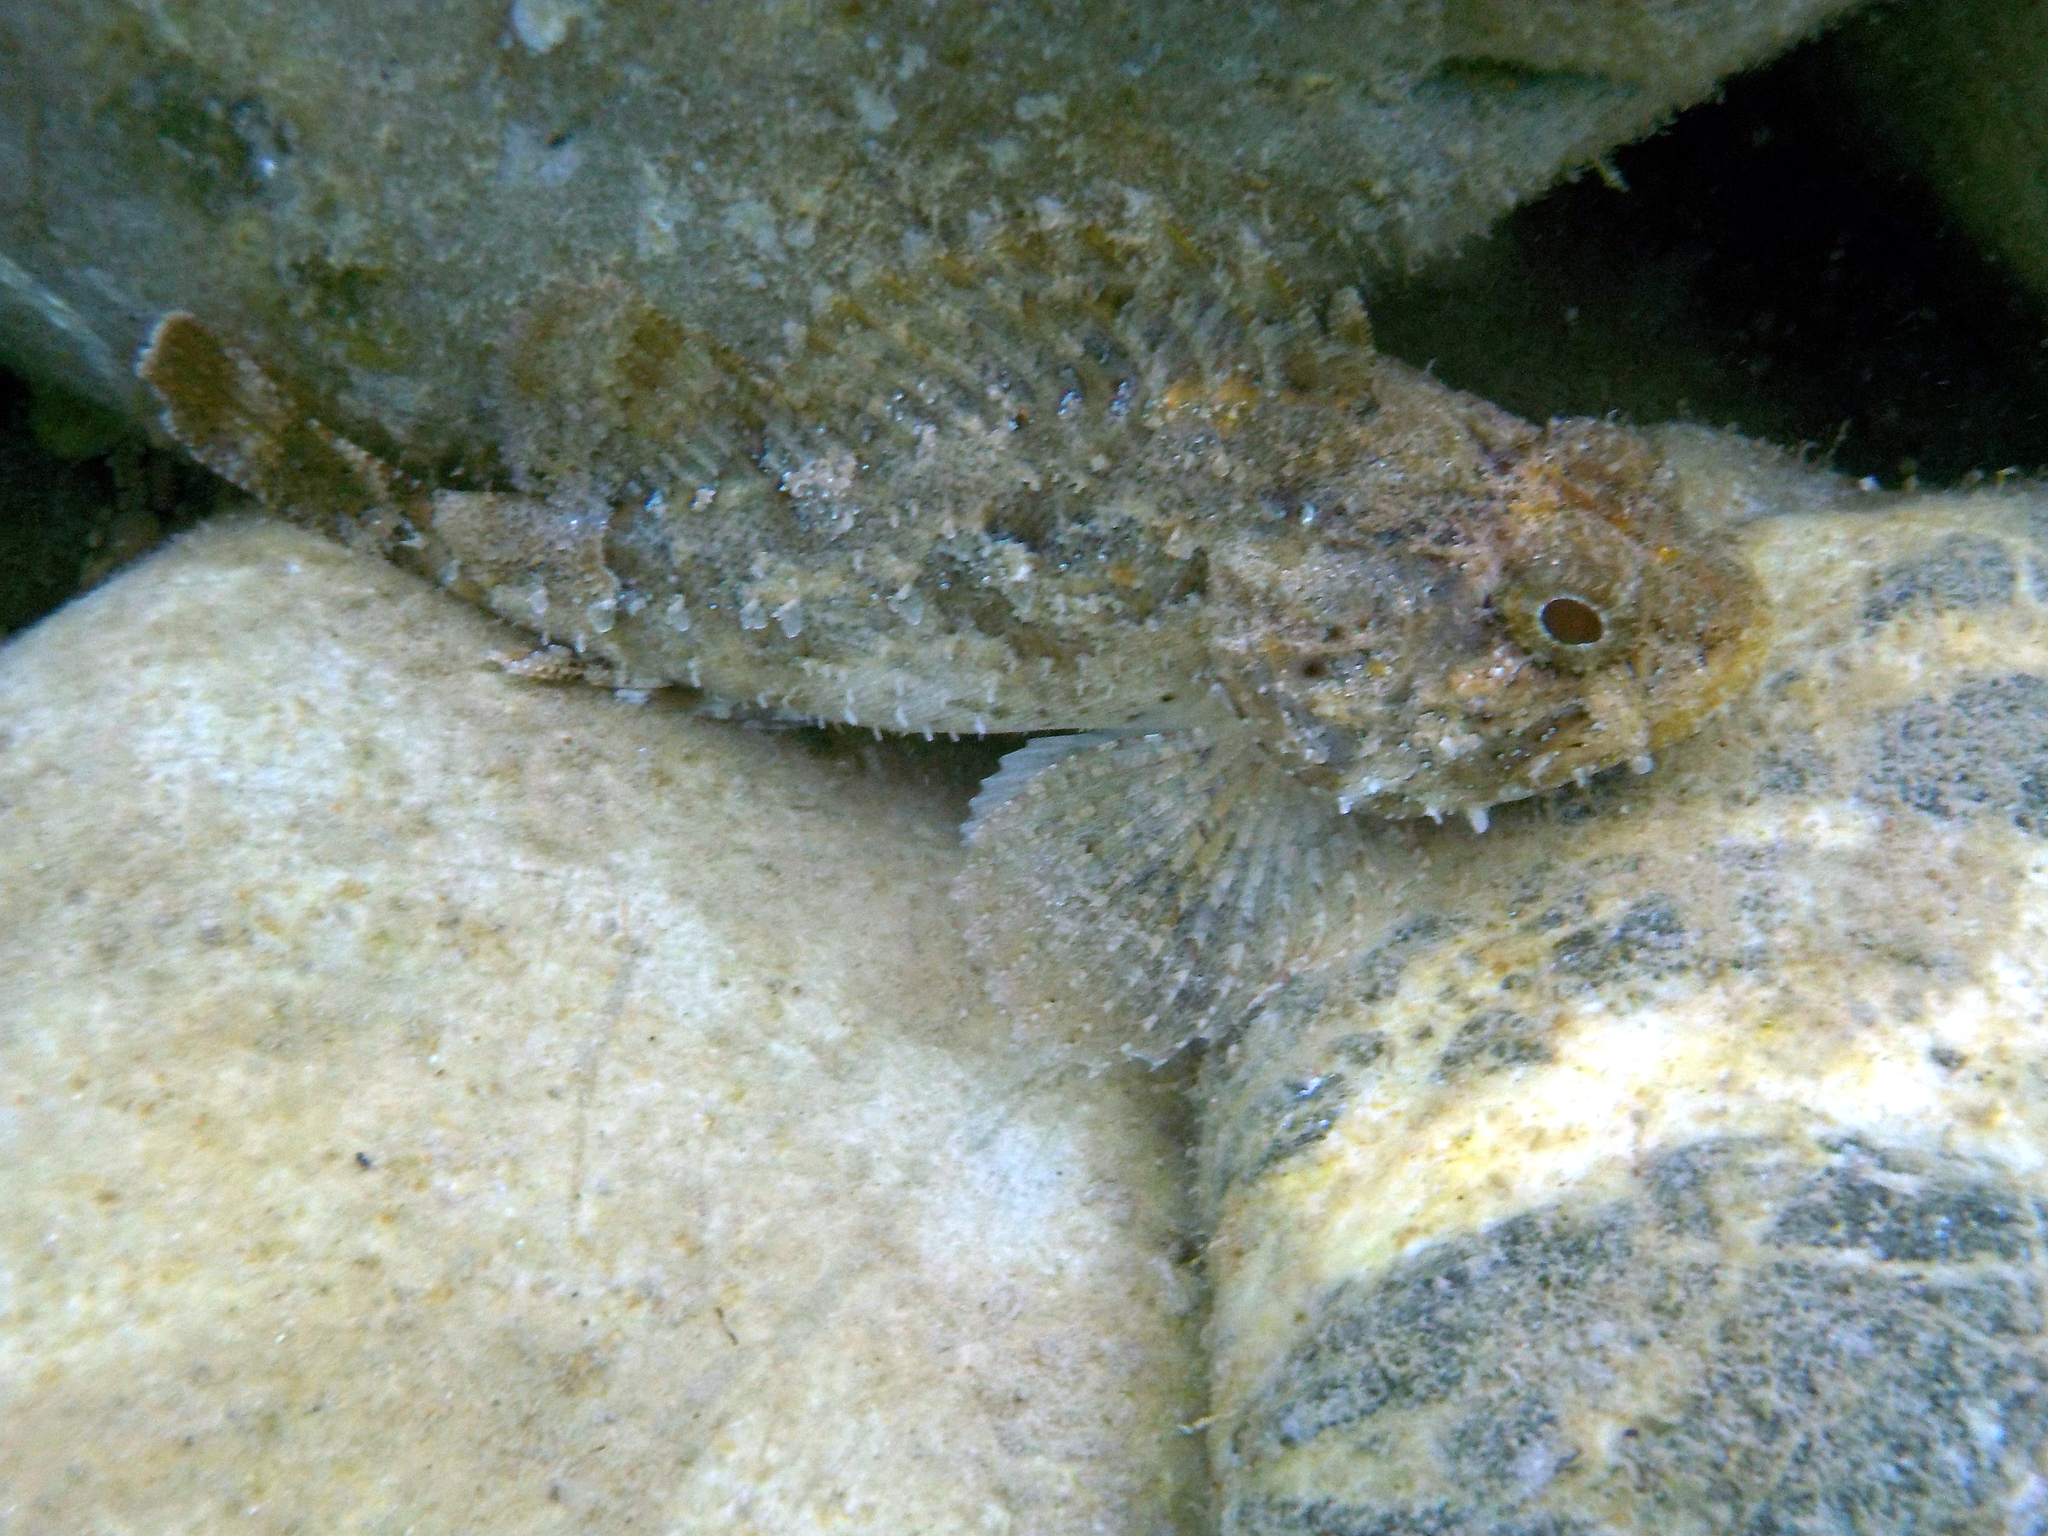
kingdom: Animalia
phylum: Chordata
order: Scorpaeniformes
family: Scorpaenidae
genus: Scorpaena
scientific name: Scorpaena porcus
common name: Black scorpionfish
